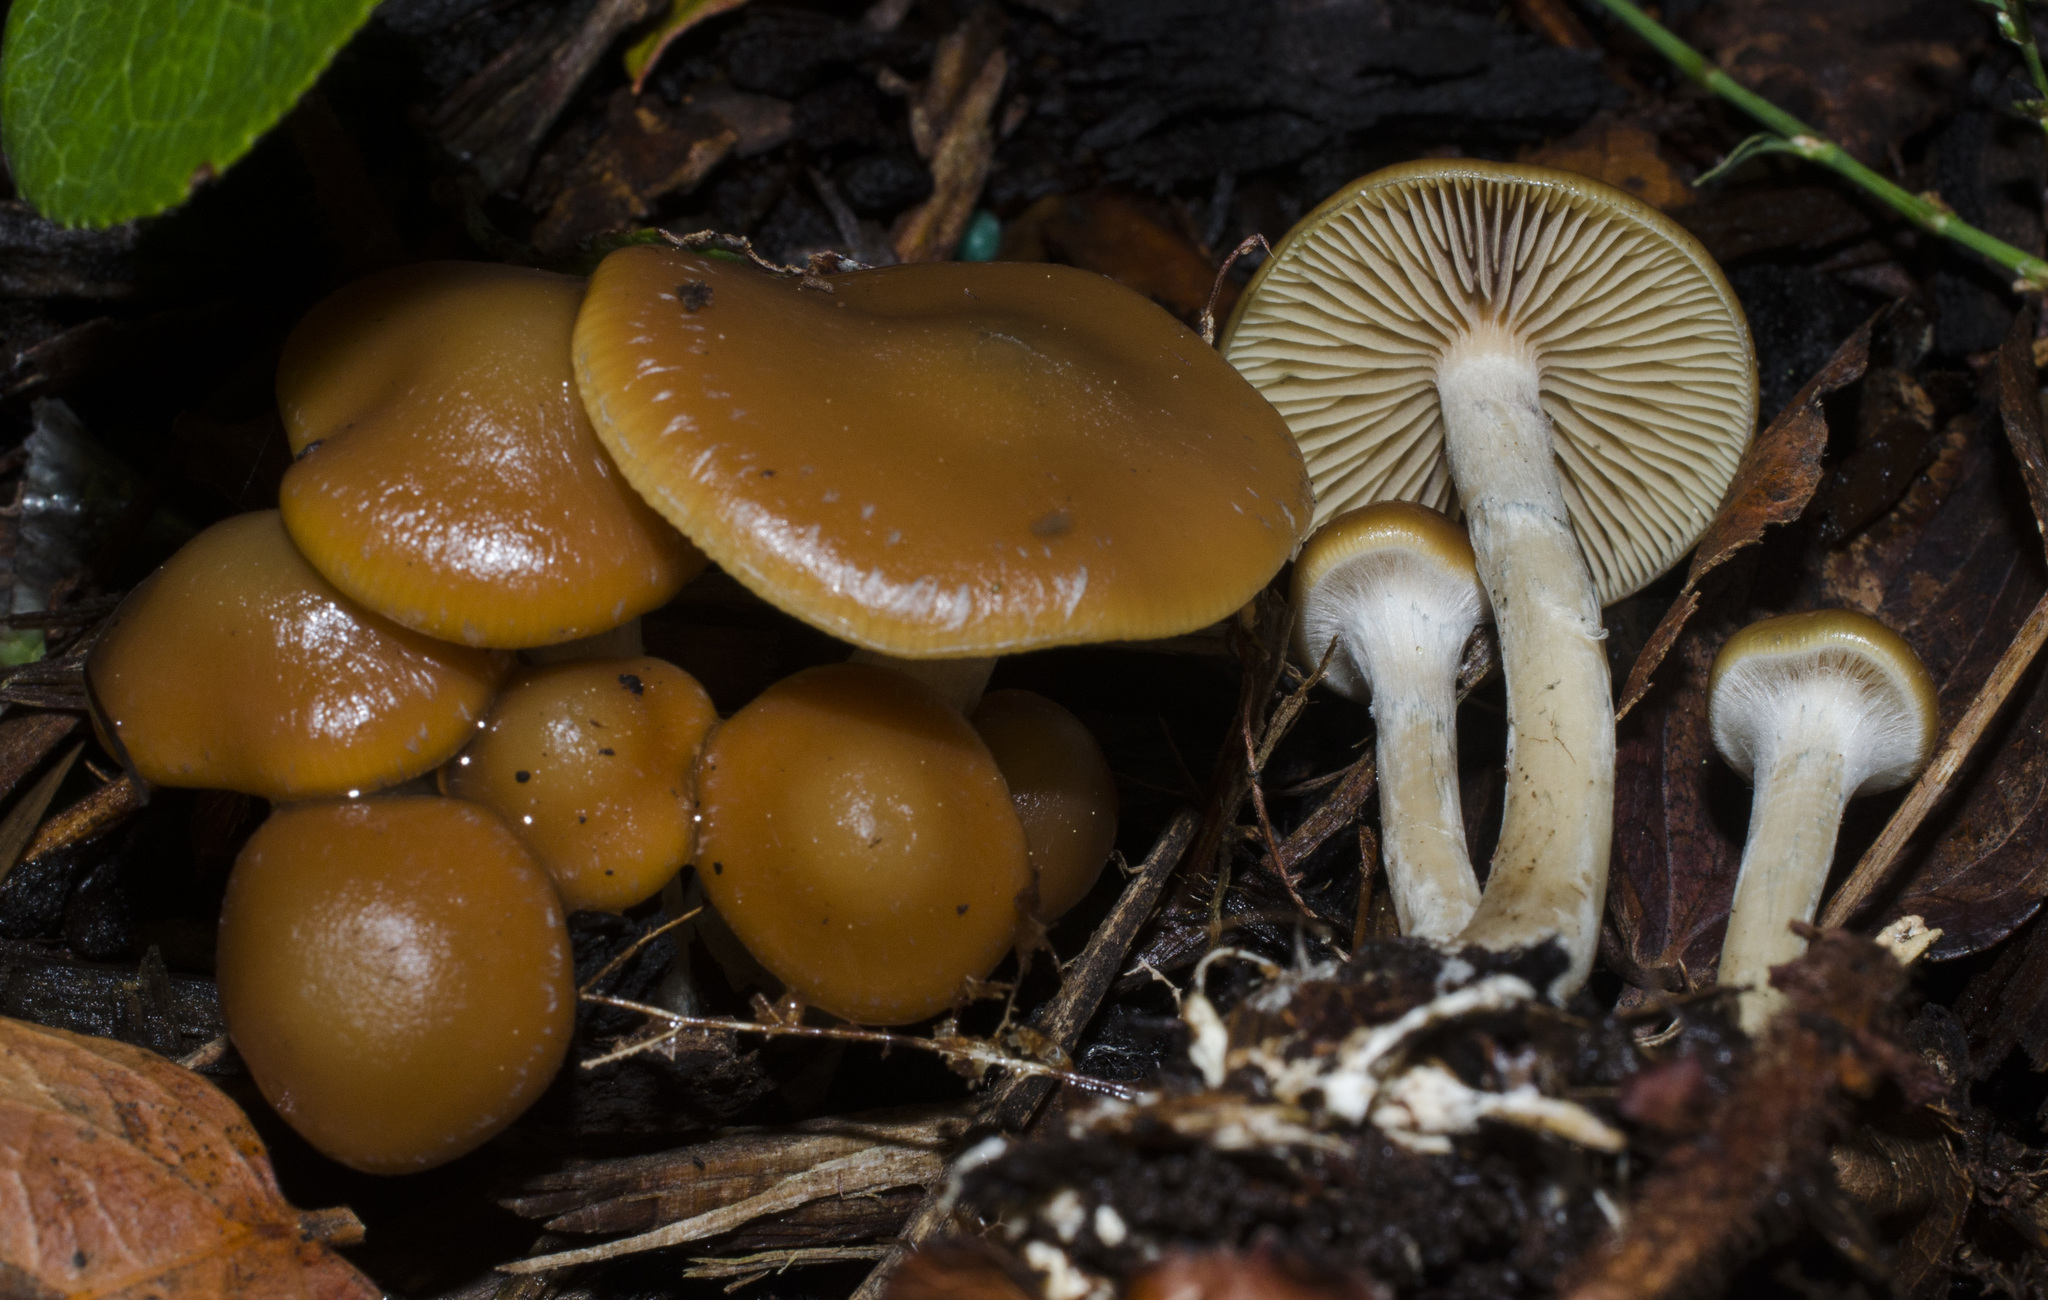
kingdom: Fungi
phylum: Basidiomycota
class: Agaricomycetes
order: Agaricales
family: Hymenogastraceae
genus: Psilocybe
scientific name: Psilocybe cyanescens
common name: Blueleg brownie
